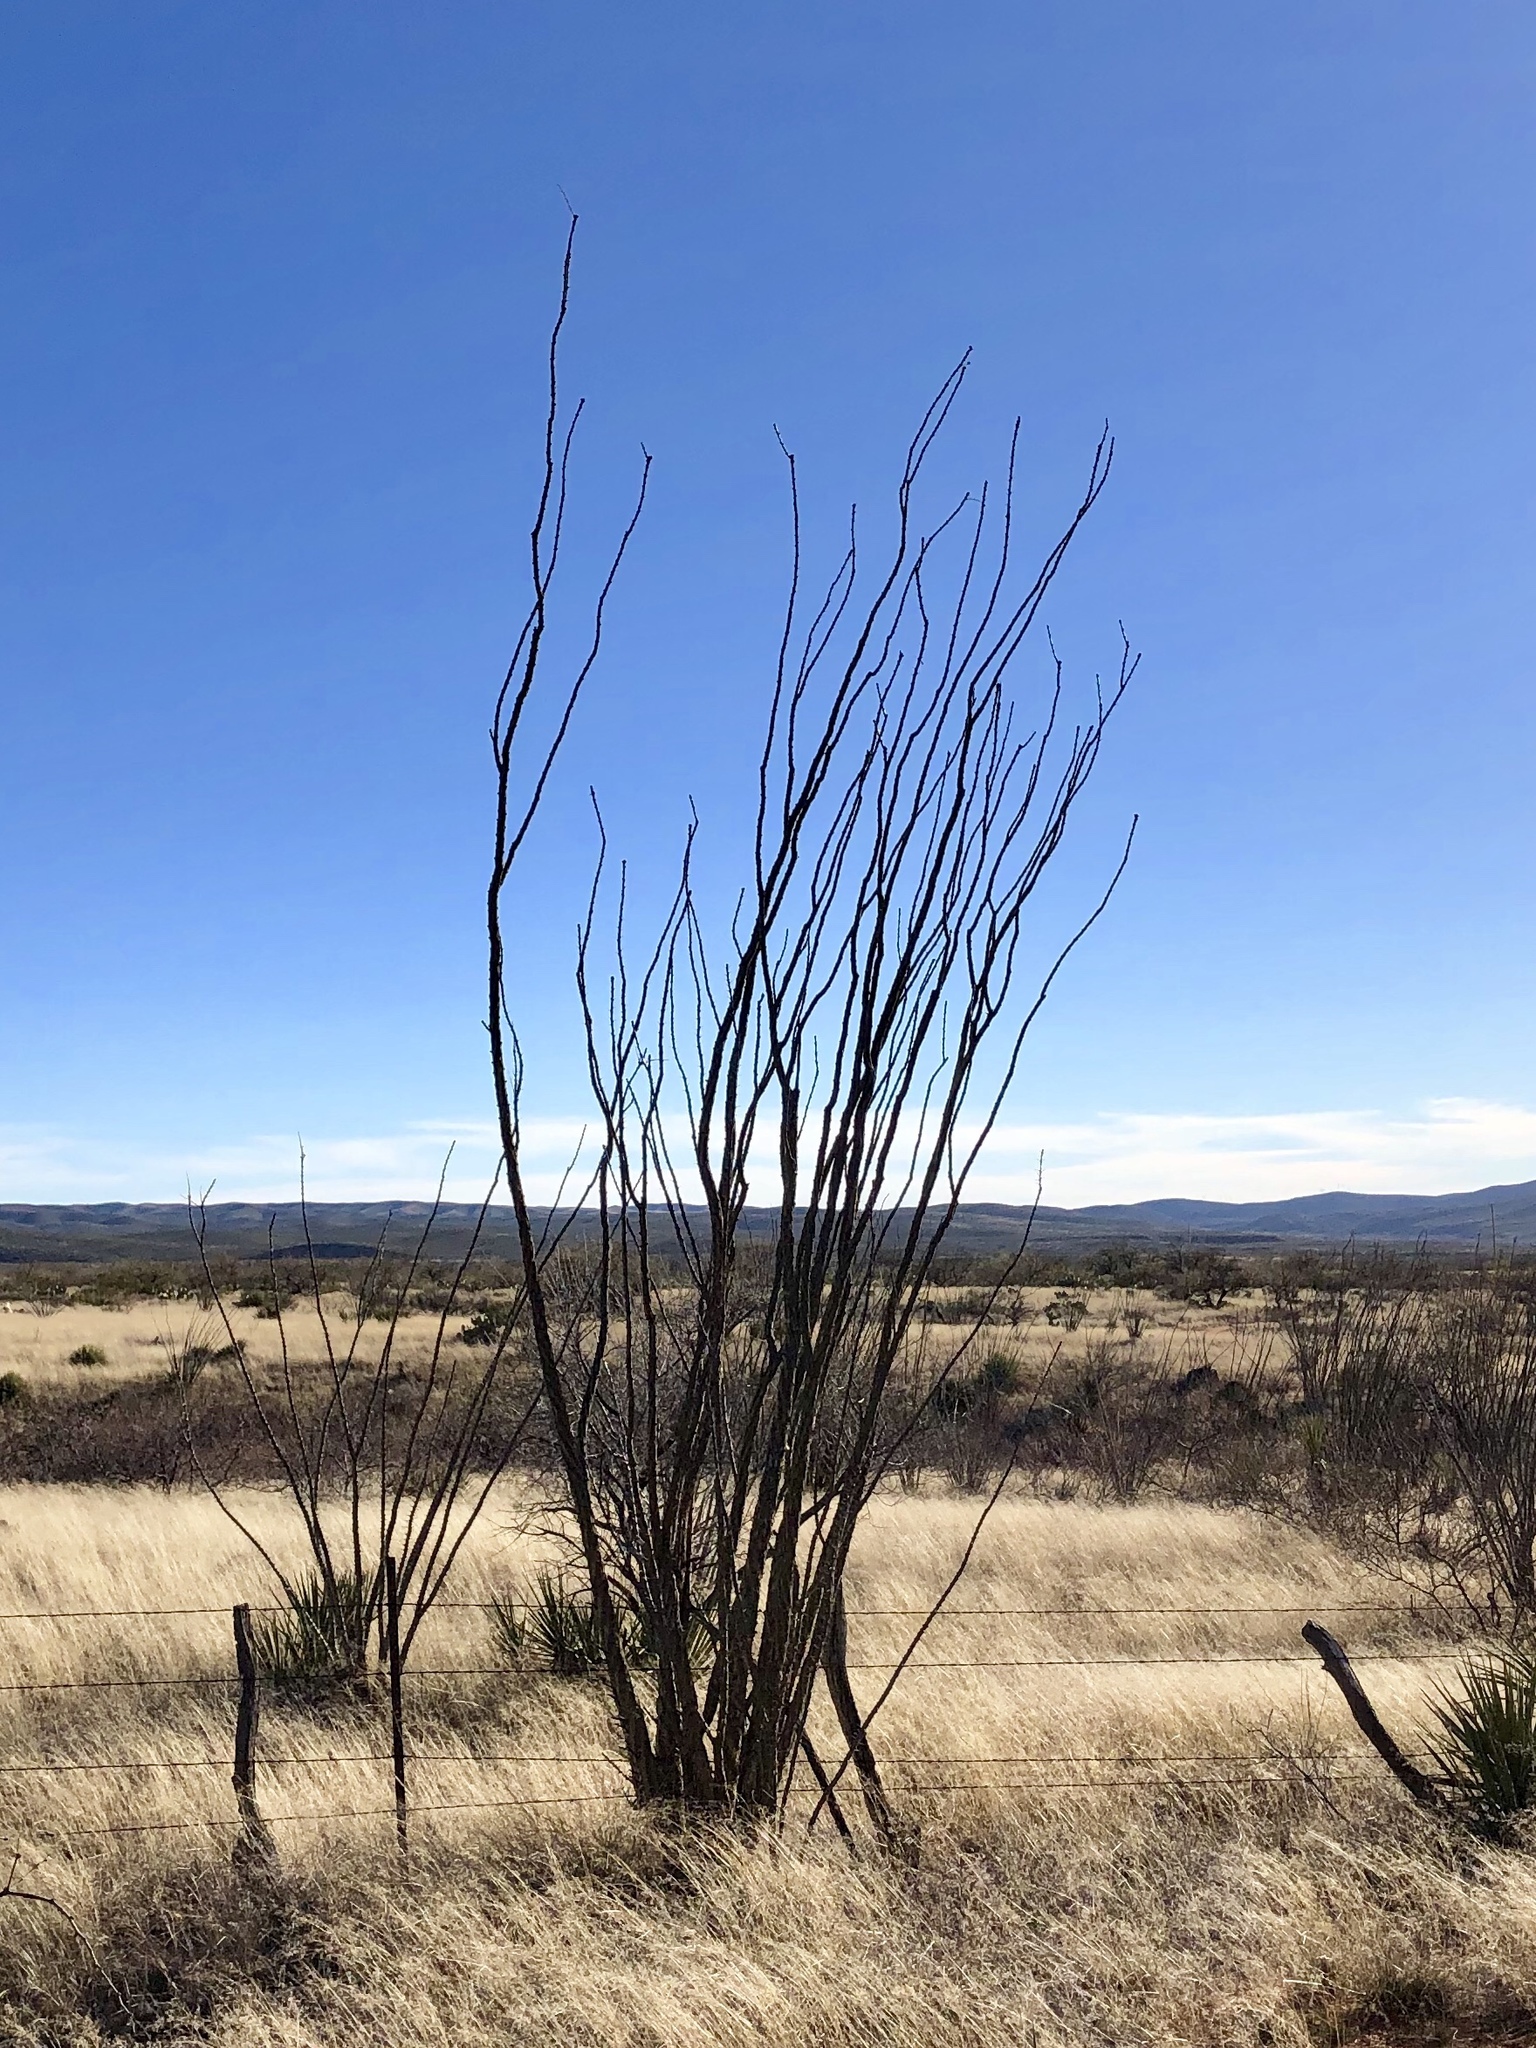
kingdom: Plantae
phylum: Tracheophyta
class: Magnoliopsida
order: Ericales
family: Fouquieriaceae
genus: Fouquieria
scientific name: Fouquieria splendens
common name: Vine-cactus
